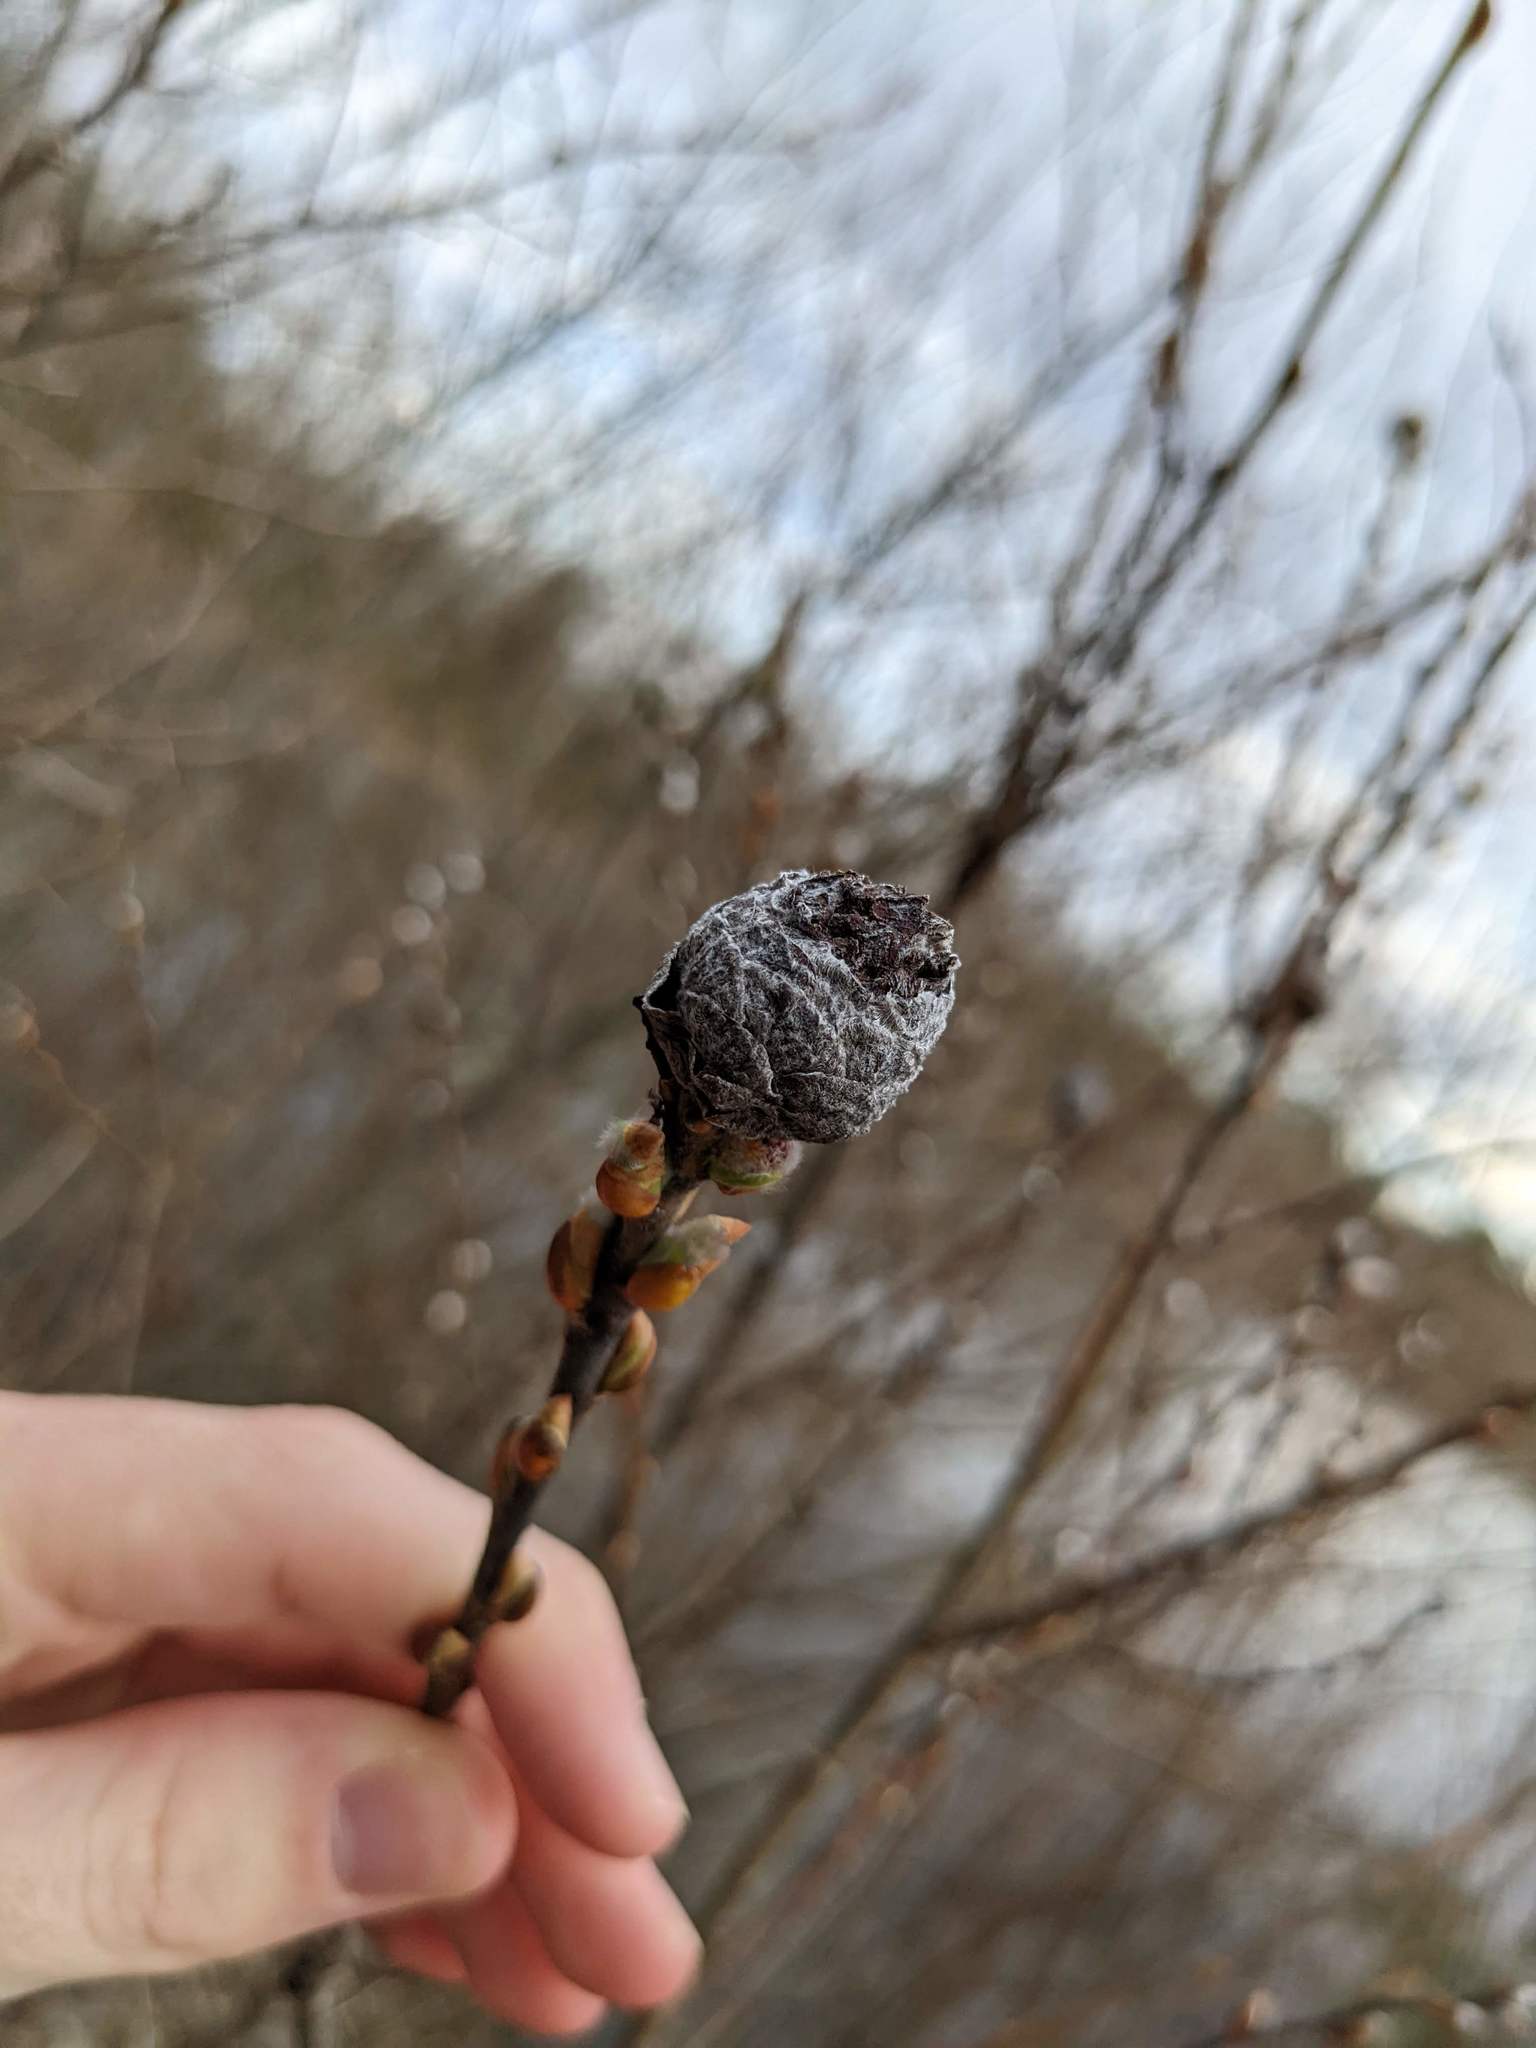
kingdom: Animalia
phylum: Arthropoda
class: Insecta
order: Diptera
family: Cecidomyiidae
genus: Rabdophaga
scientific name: Rabdophaga strobiloides
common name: Willow pinecone gall midge
